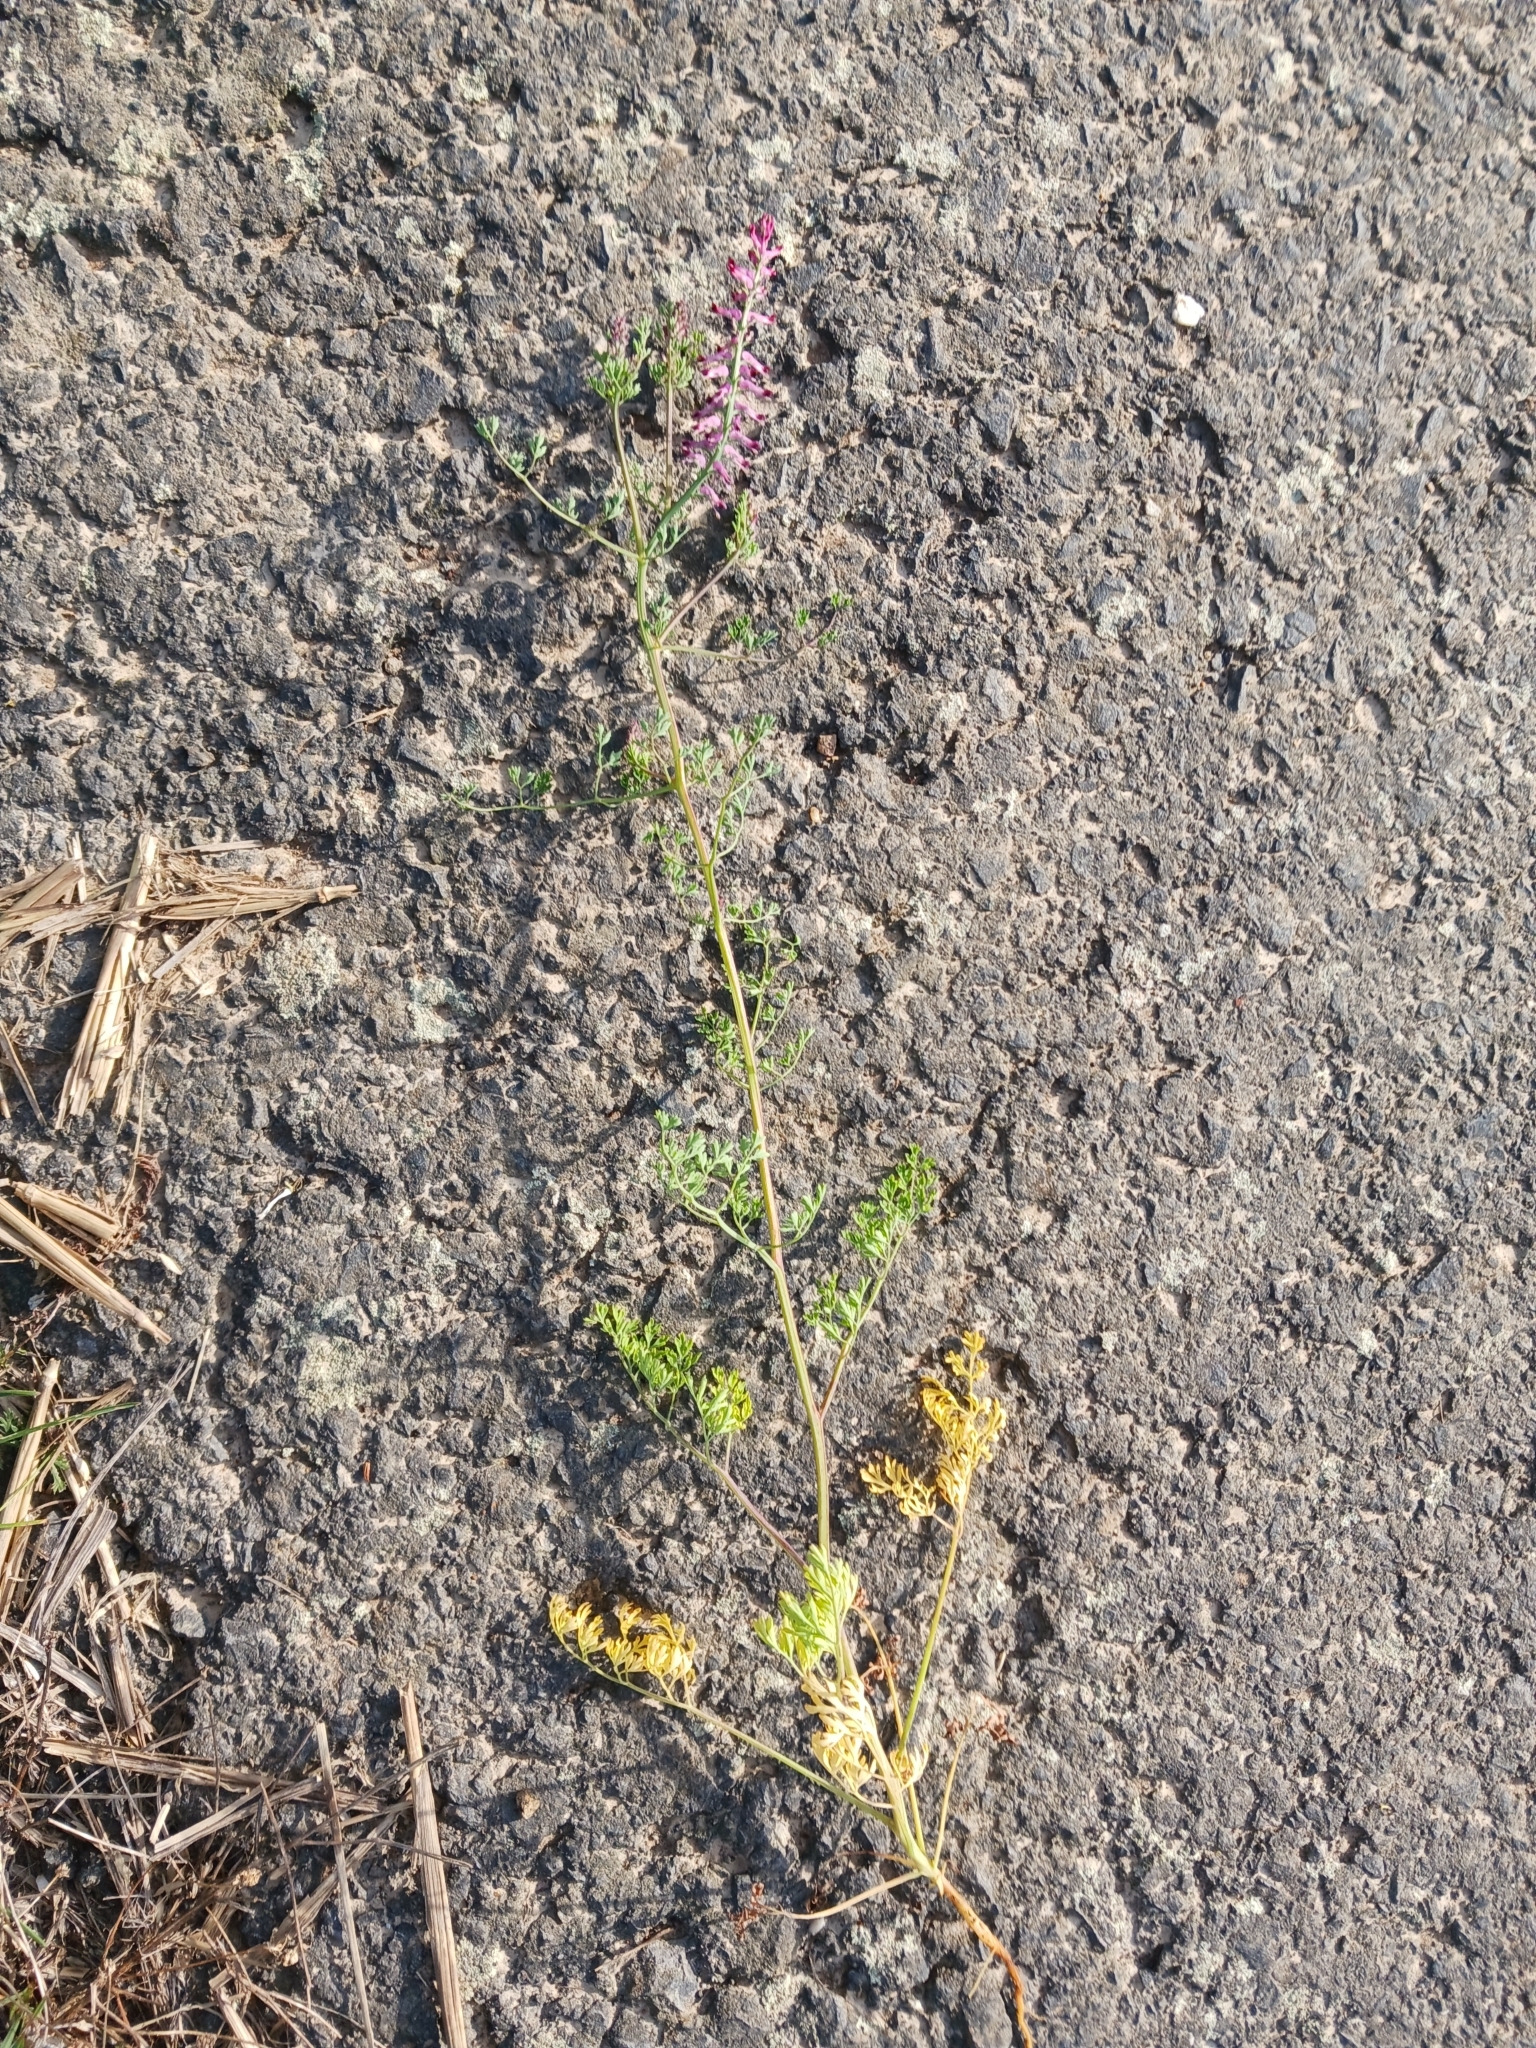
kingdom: Plantae
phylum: Tracheophyta
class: Magnoliopsida
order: Ranunculales
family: Papaveraceae
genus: Fumaria
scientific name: Fumaria officinalis
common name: Common fumitory
